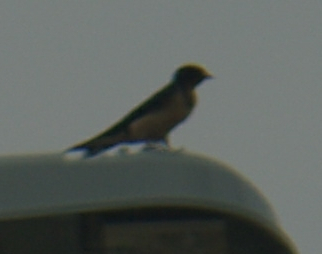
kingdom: Animalia
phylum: Chordata
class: Aves
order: Passeriformes
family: Hirundinidae
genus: Hirundo
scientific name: Hirundo rustica
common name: Barn swallow
